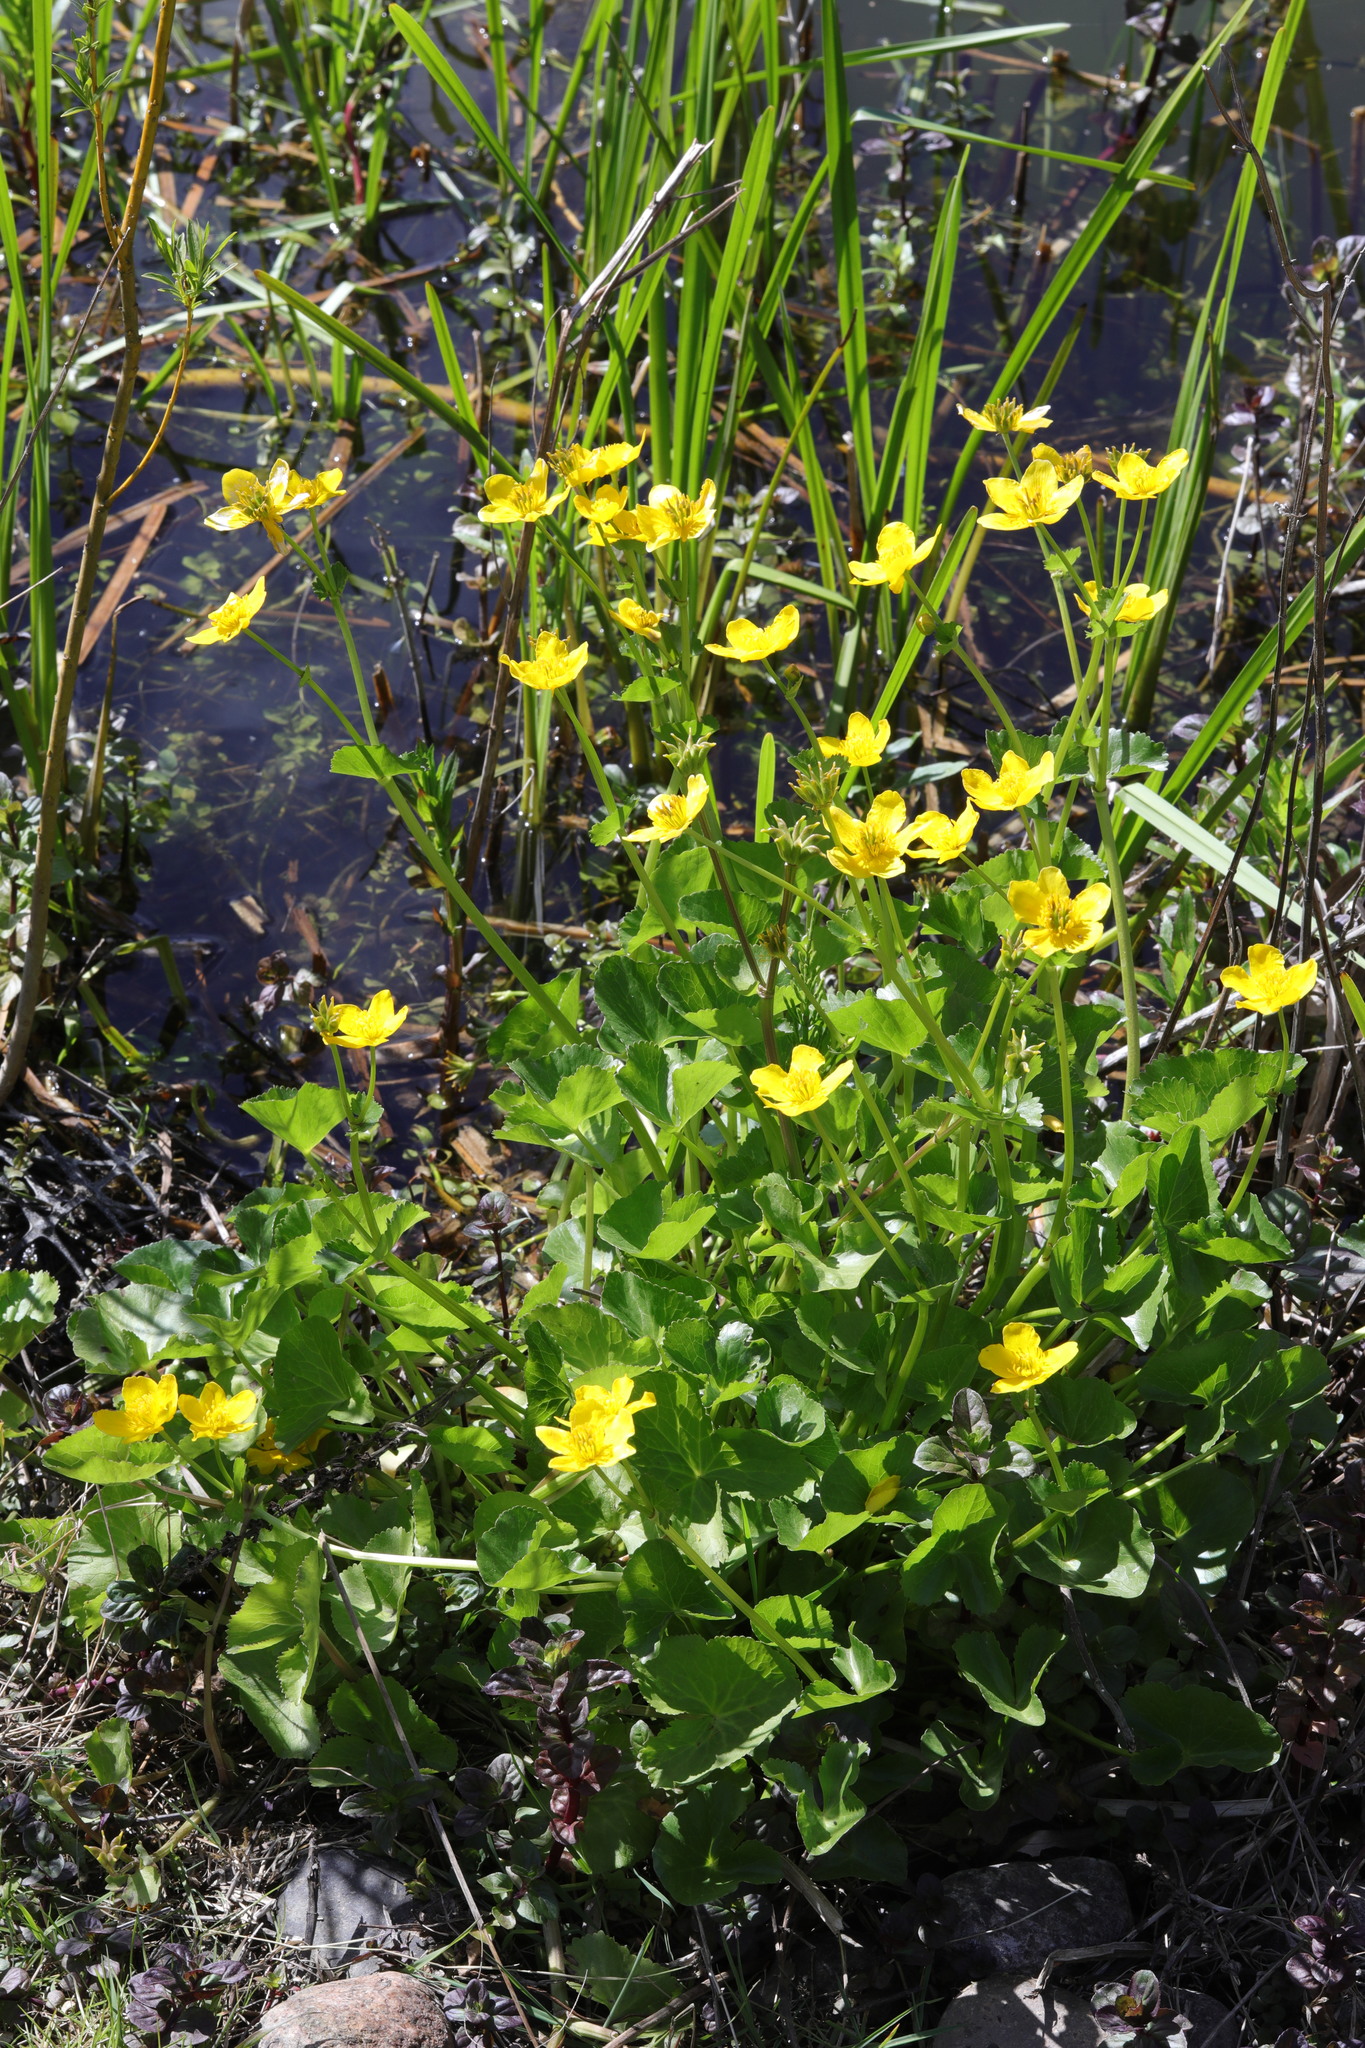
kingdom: Plantae
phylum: Tracheophyta
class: Magnoliopsida
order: Ranunculales
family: Ranunculaceae
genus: Caltha
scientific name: Caltha palustris
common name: Marsh marigold
